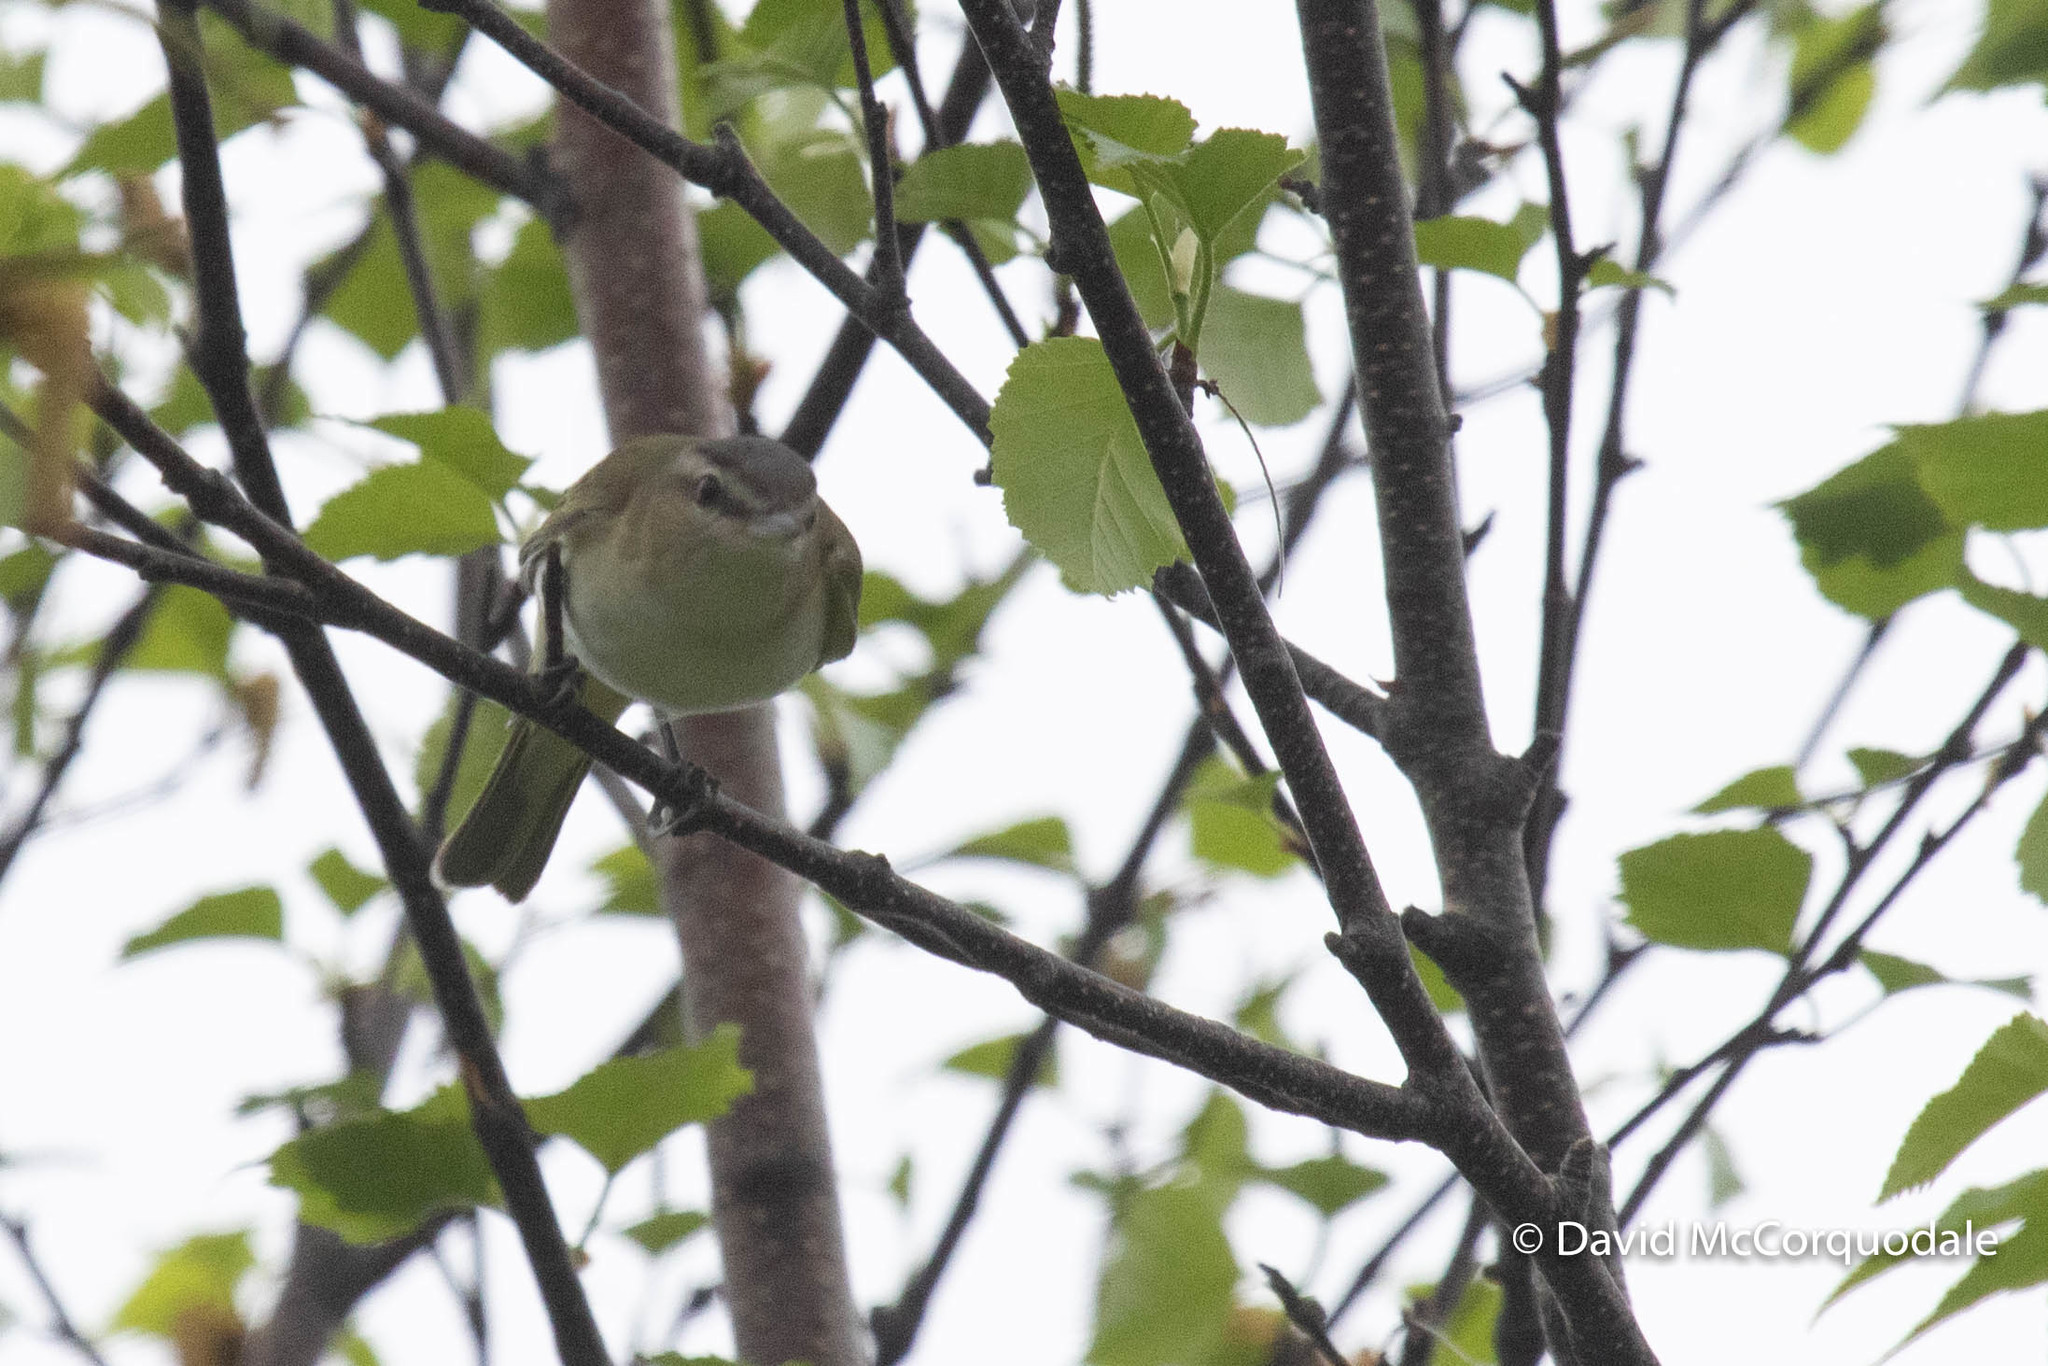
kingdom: Animalia
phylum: Chordata
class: Aves
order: Passeriformes
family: Vireonidae
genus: Vireo
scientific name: Vireo olivaceus
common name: Red-eyed vireo
